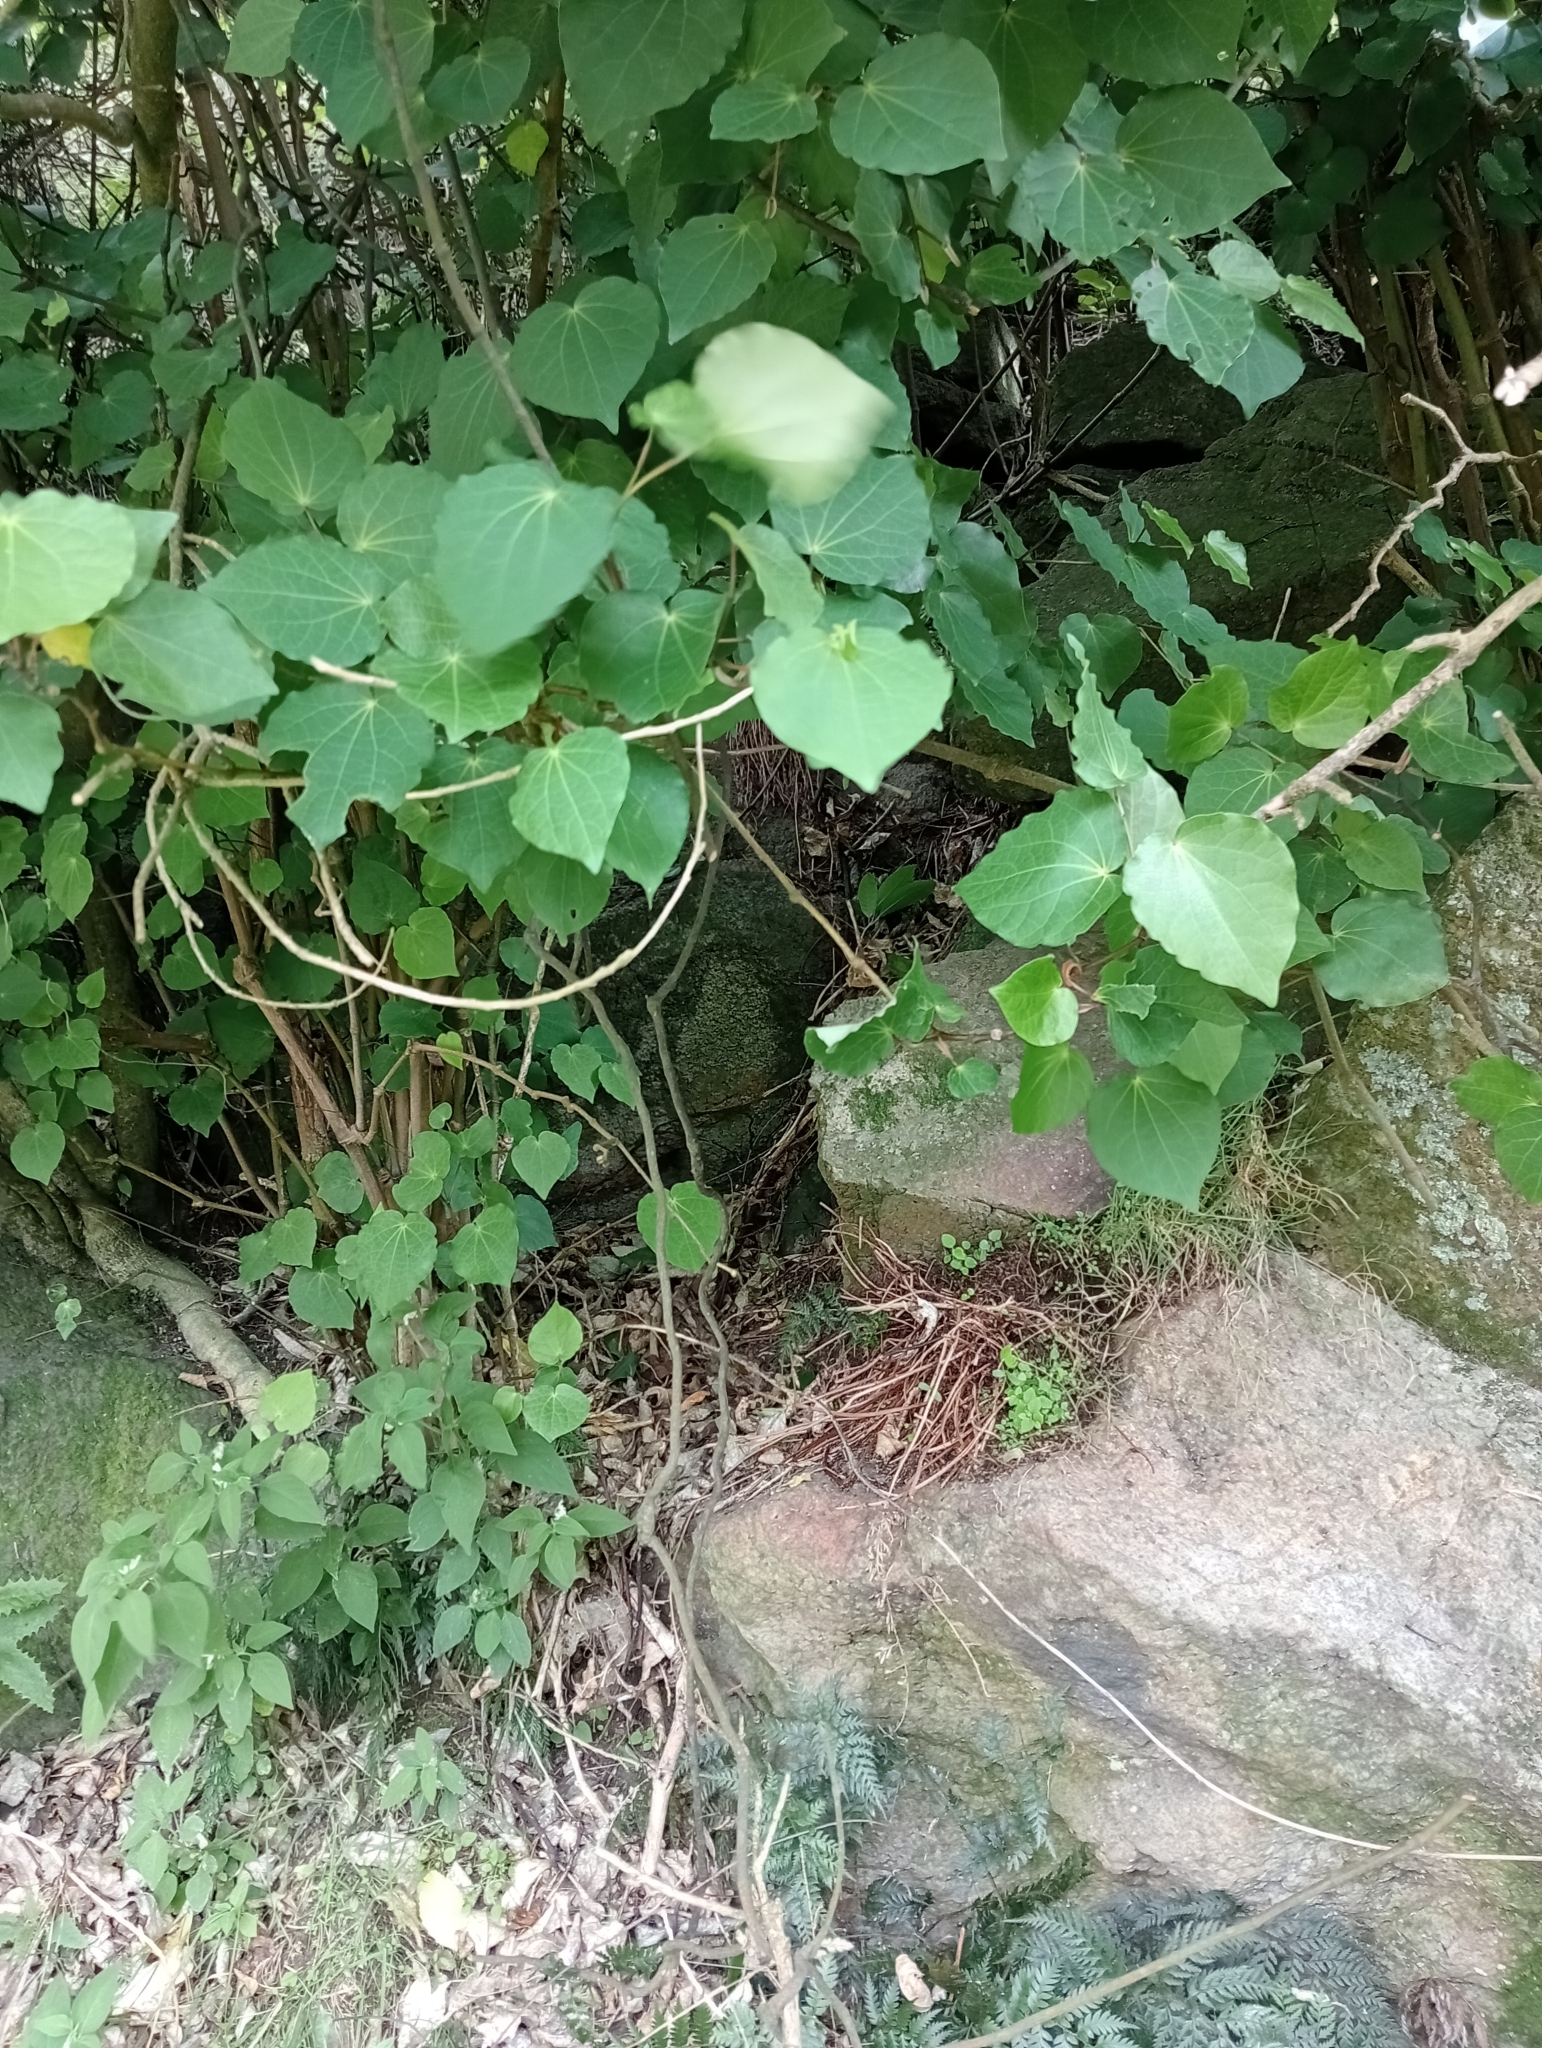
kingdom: Plantae
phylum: Tracheophyta
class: Magnoliopsida
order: Piperales
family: Piperaceae
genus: Macropiper
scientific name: Macropiper excelsum
